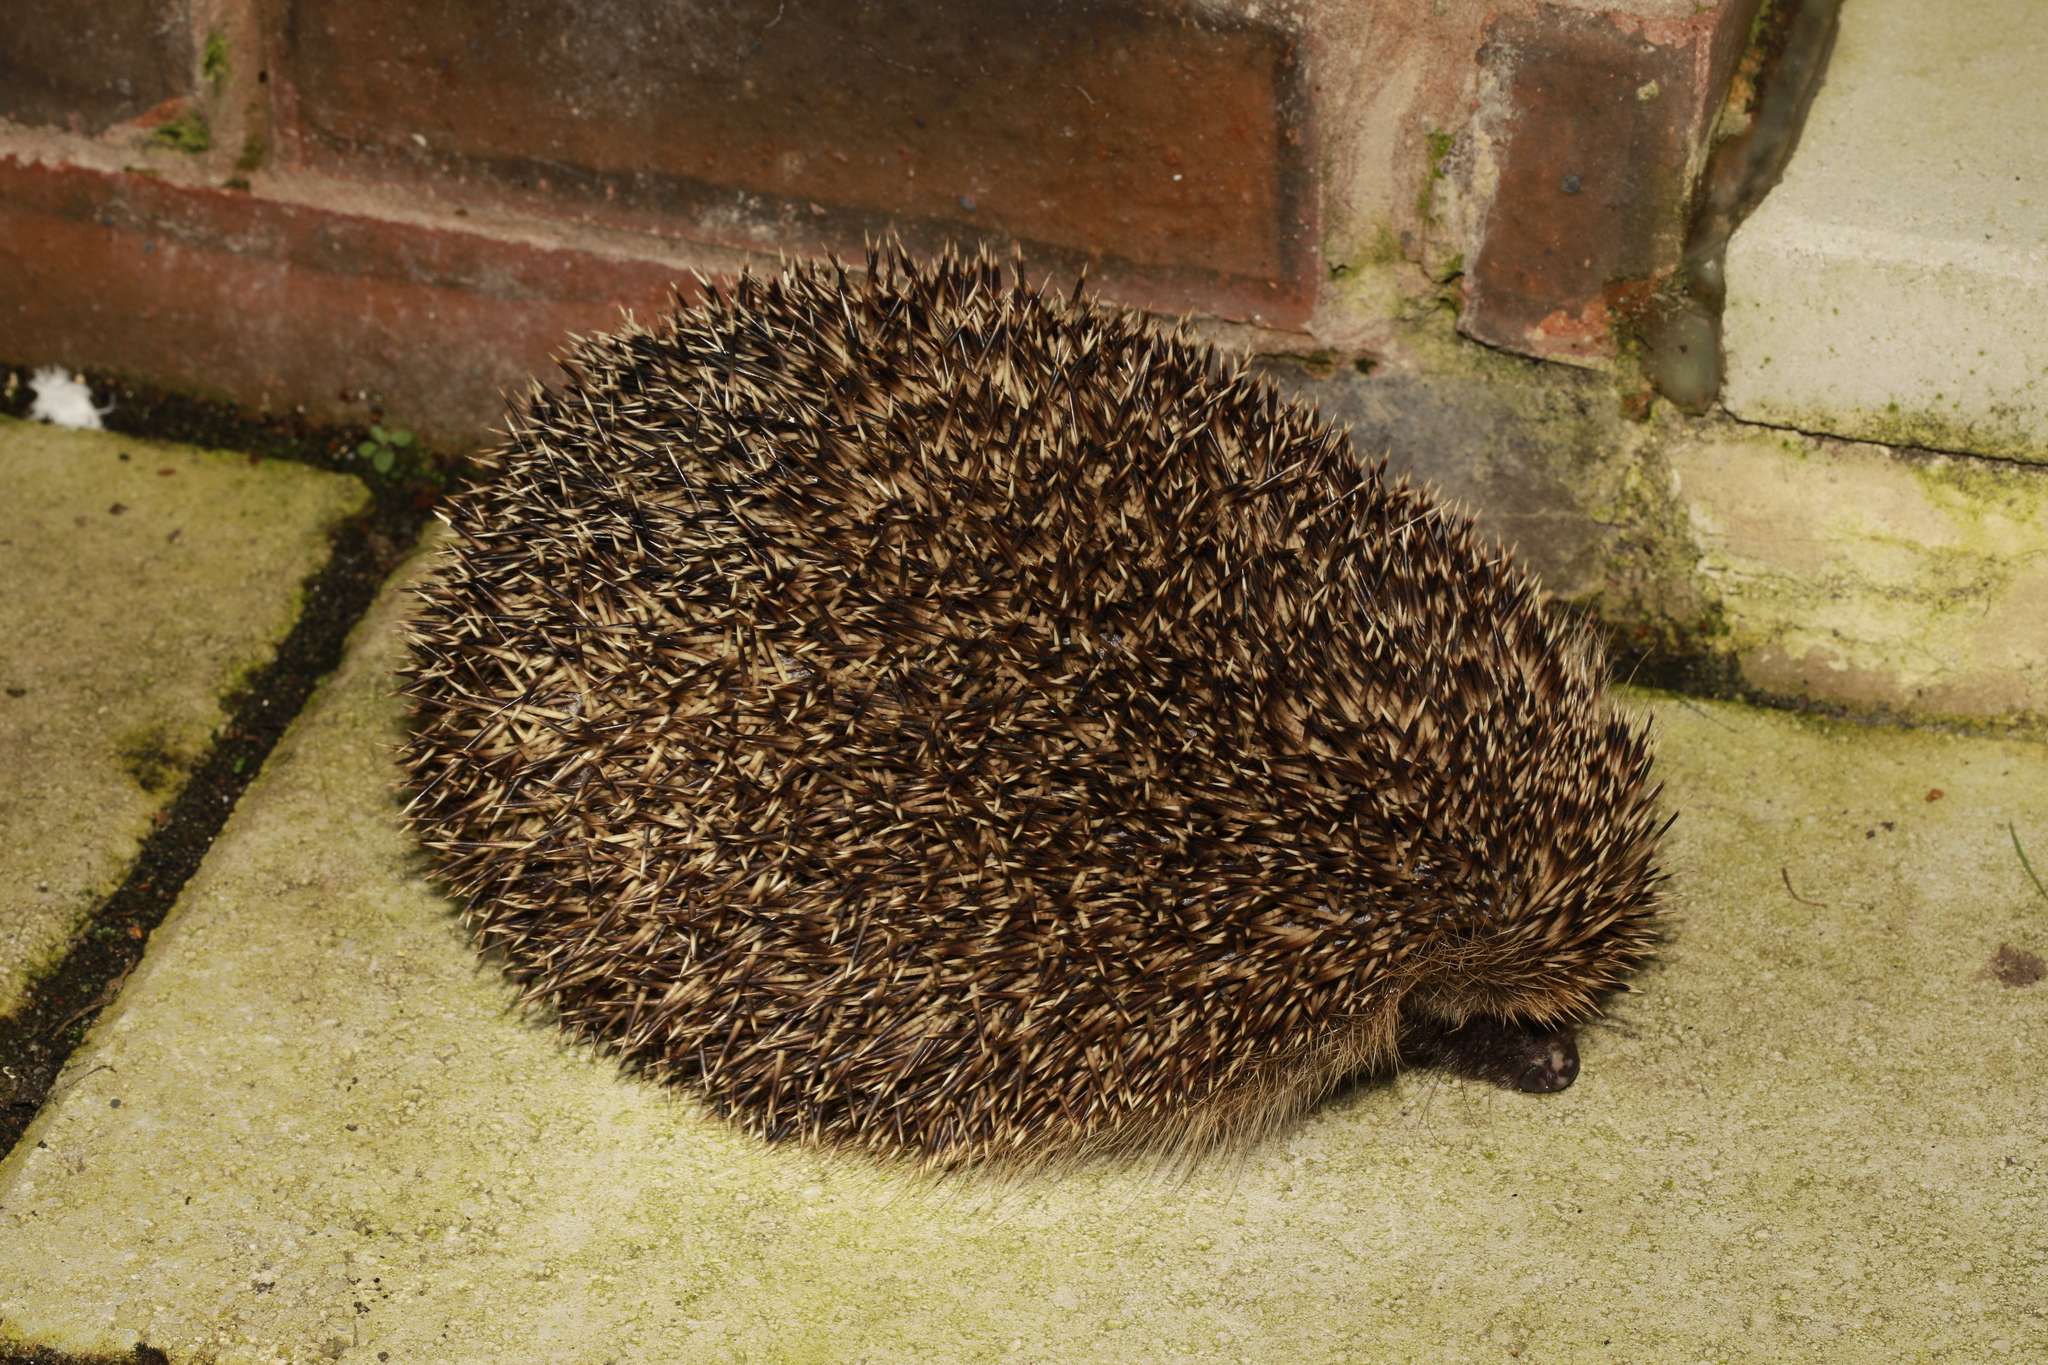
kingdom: Animalia
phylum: Chordata
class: Mammalia
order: Erinaceomorpha
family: Erinaceidae
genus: Erinaceus
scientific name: Erinaceus europaeus
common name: West european hedgehog
